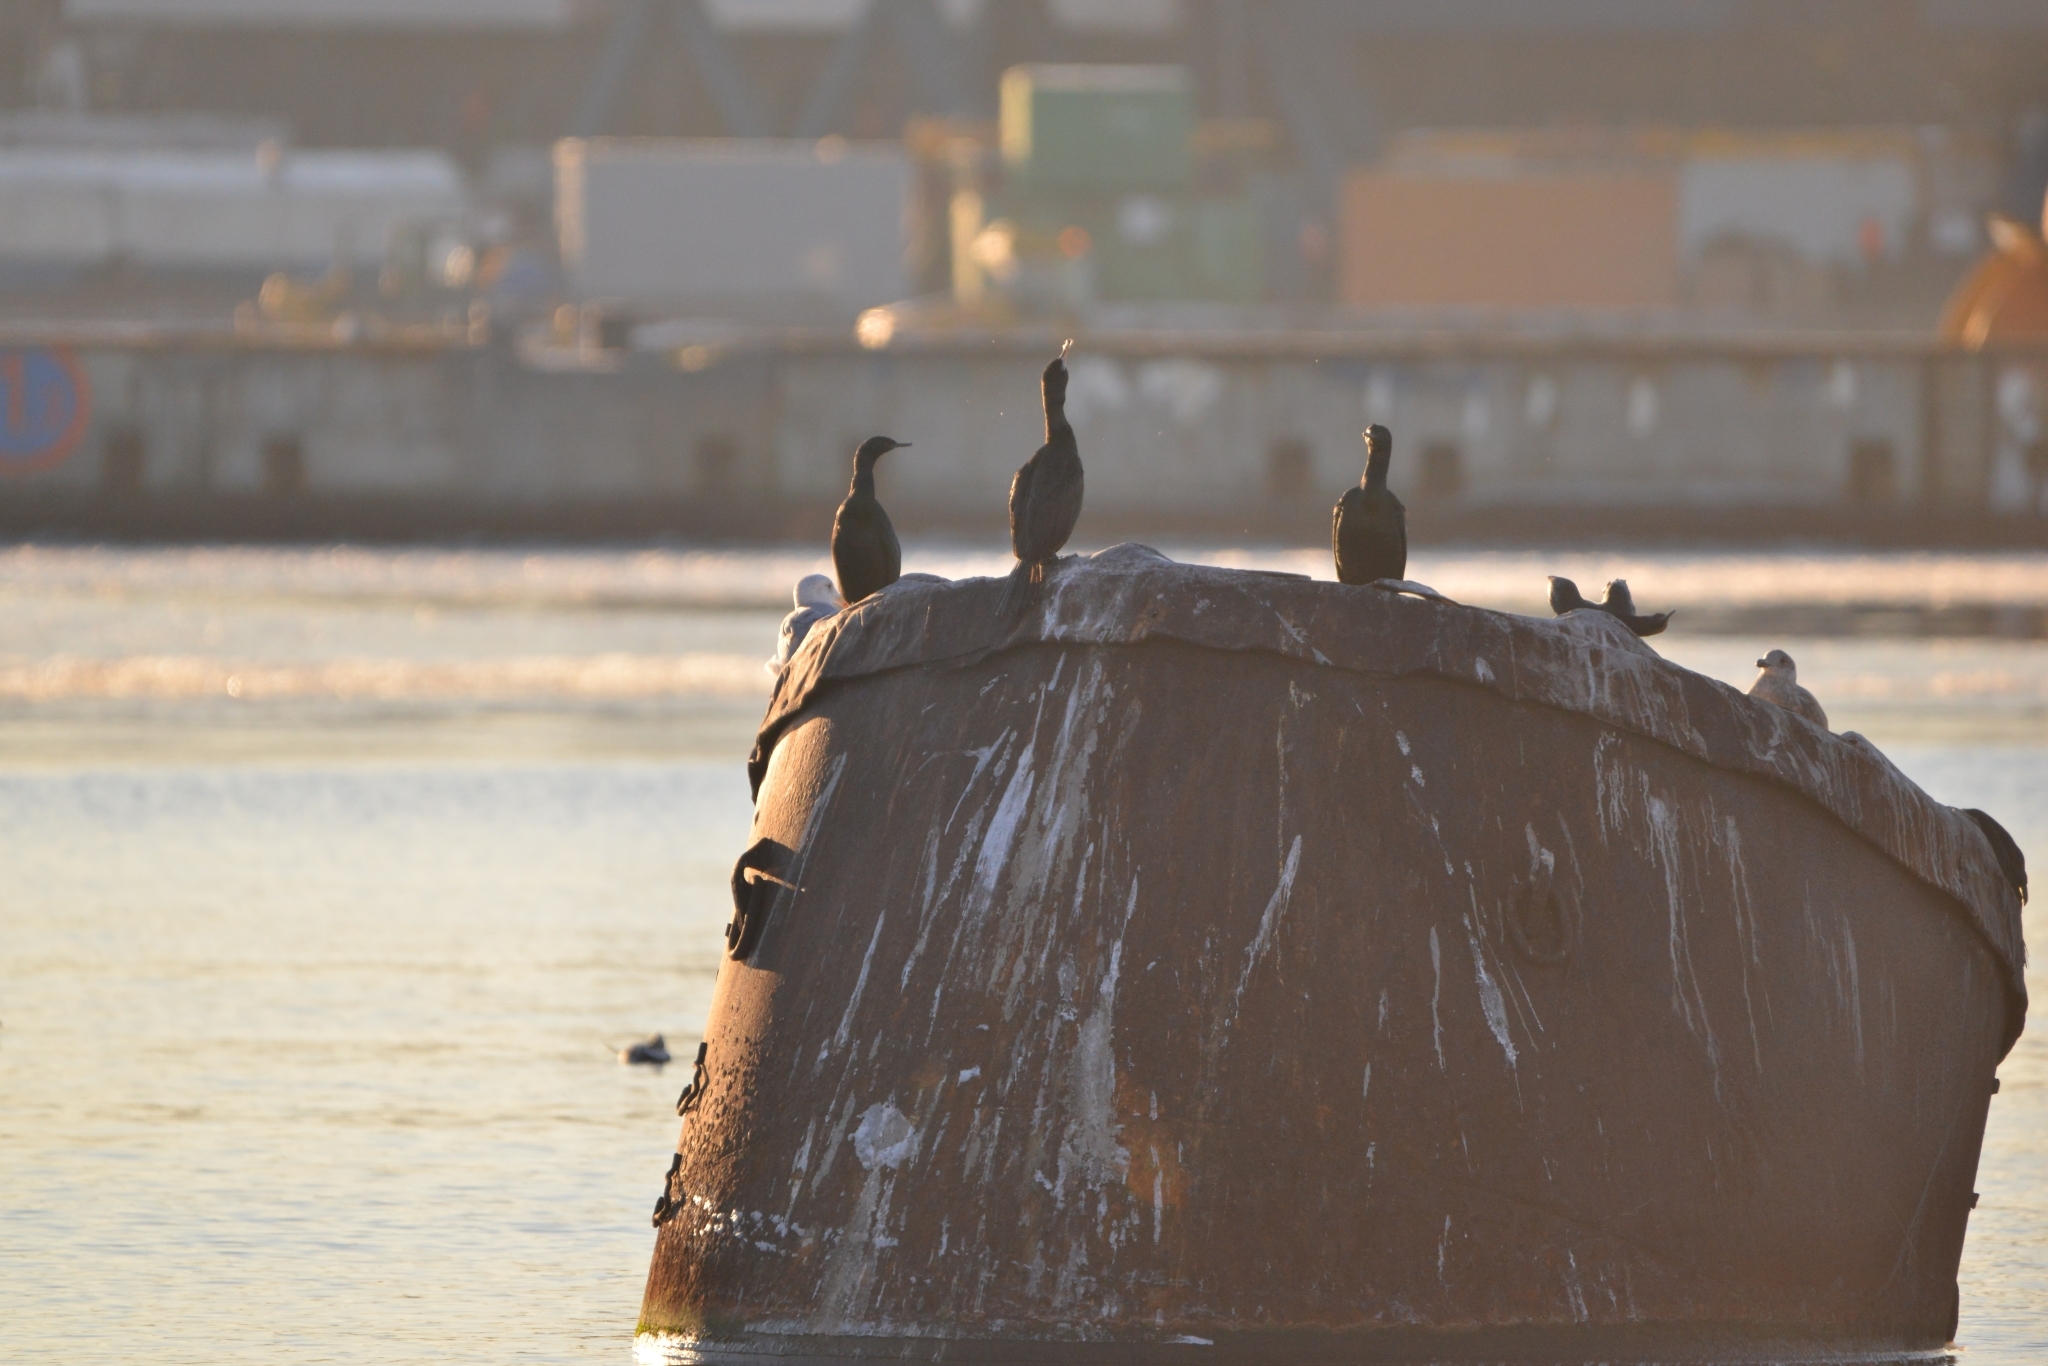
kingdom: Animalia
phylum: Chordata
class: Aves
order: Suliformes
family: Phalacrocoracidae
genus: Phalacrocorax
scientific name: Phalacrocorax pelagicus
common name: Pelagic cormorant
